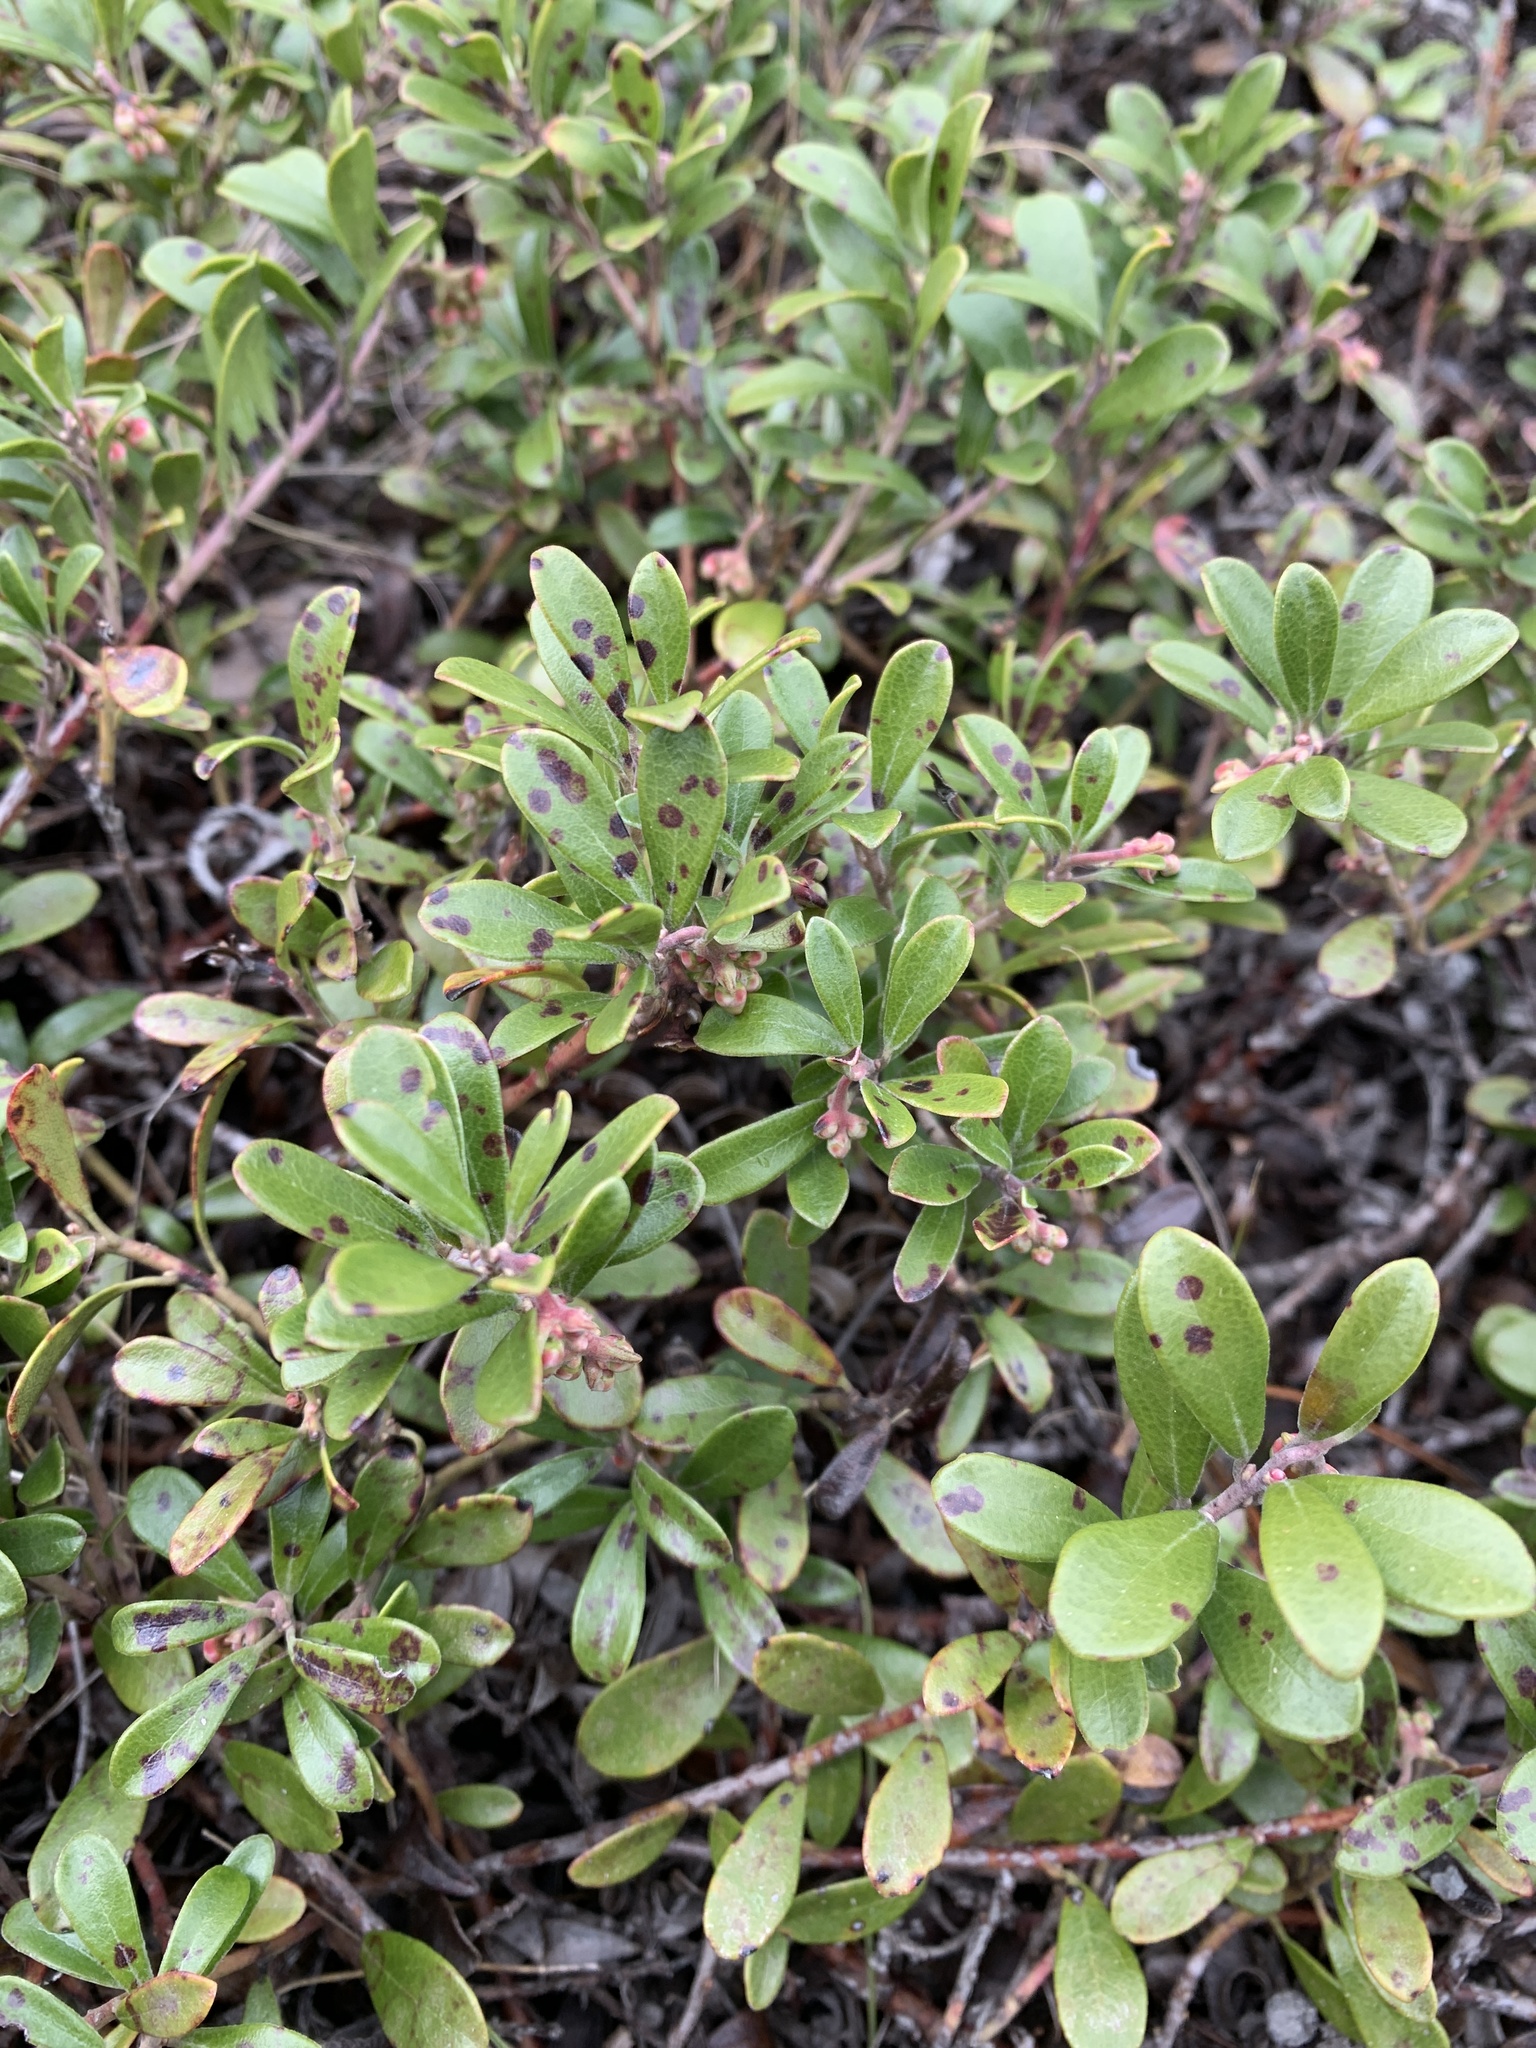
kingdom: Plantae
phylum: Tracheophyta
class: Magnoliopsida
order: Ericales
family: Ericaceae
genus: Arctostaphylos
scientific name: Arctostaphylos uva-ursi
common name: Bearberry
